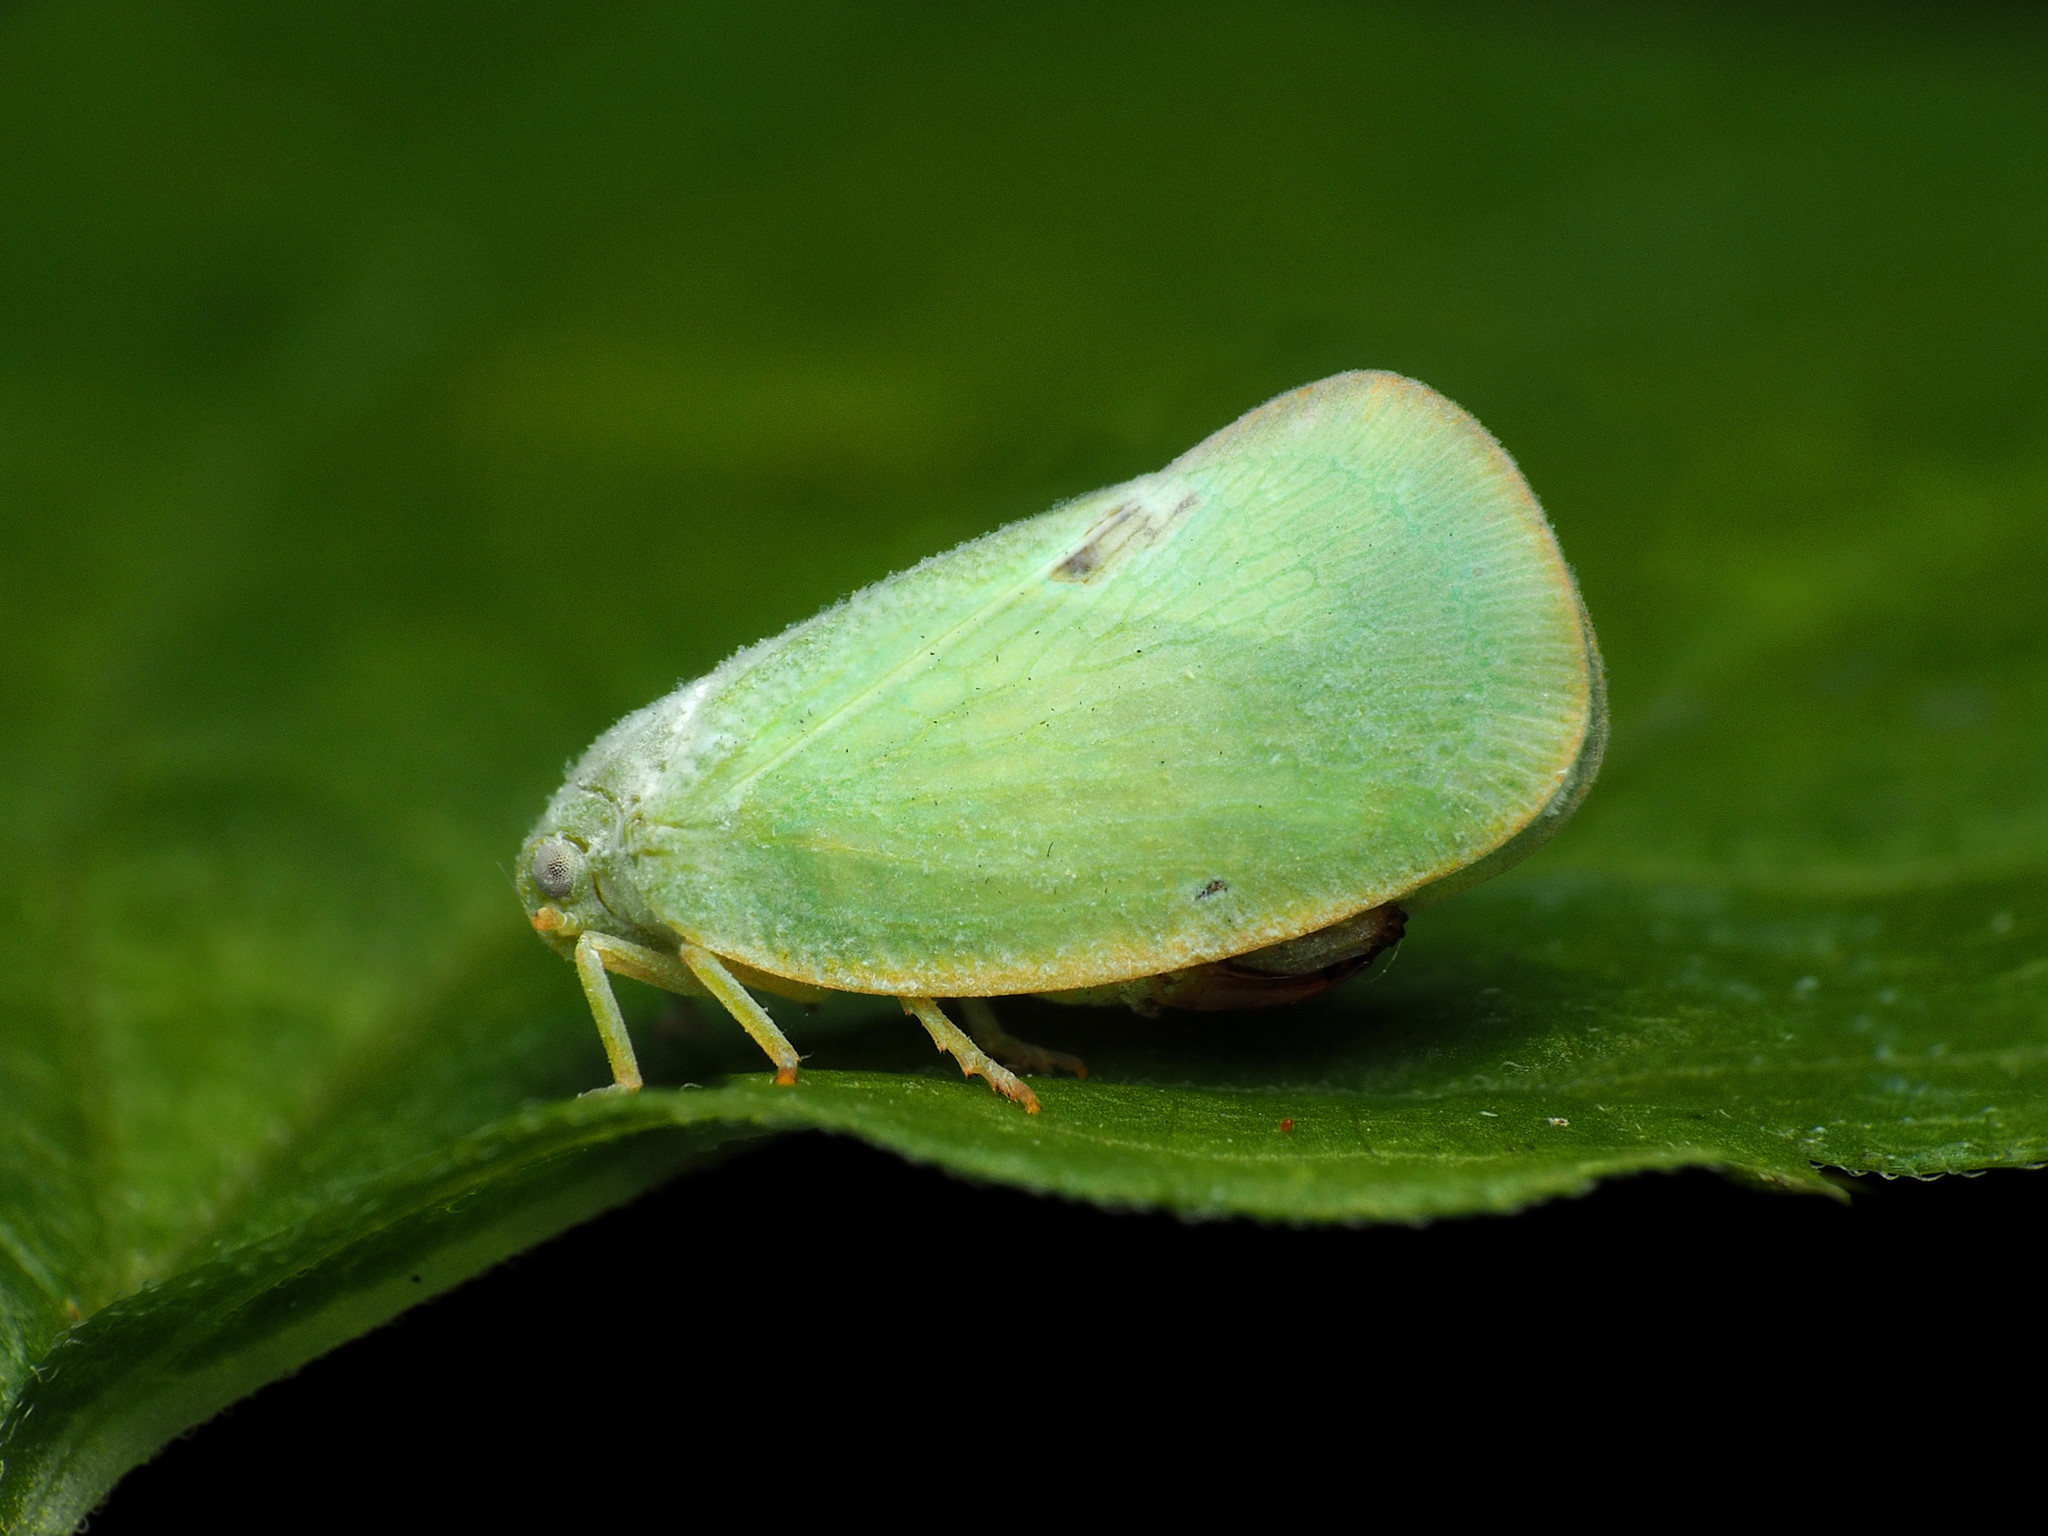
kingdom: Animalia
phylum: Arthropoda
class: Insecta
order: Hemiptera
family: Flatidae
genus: Ormenoides
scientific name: Ormenoides venusta
